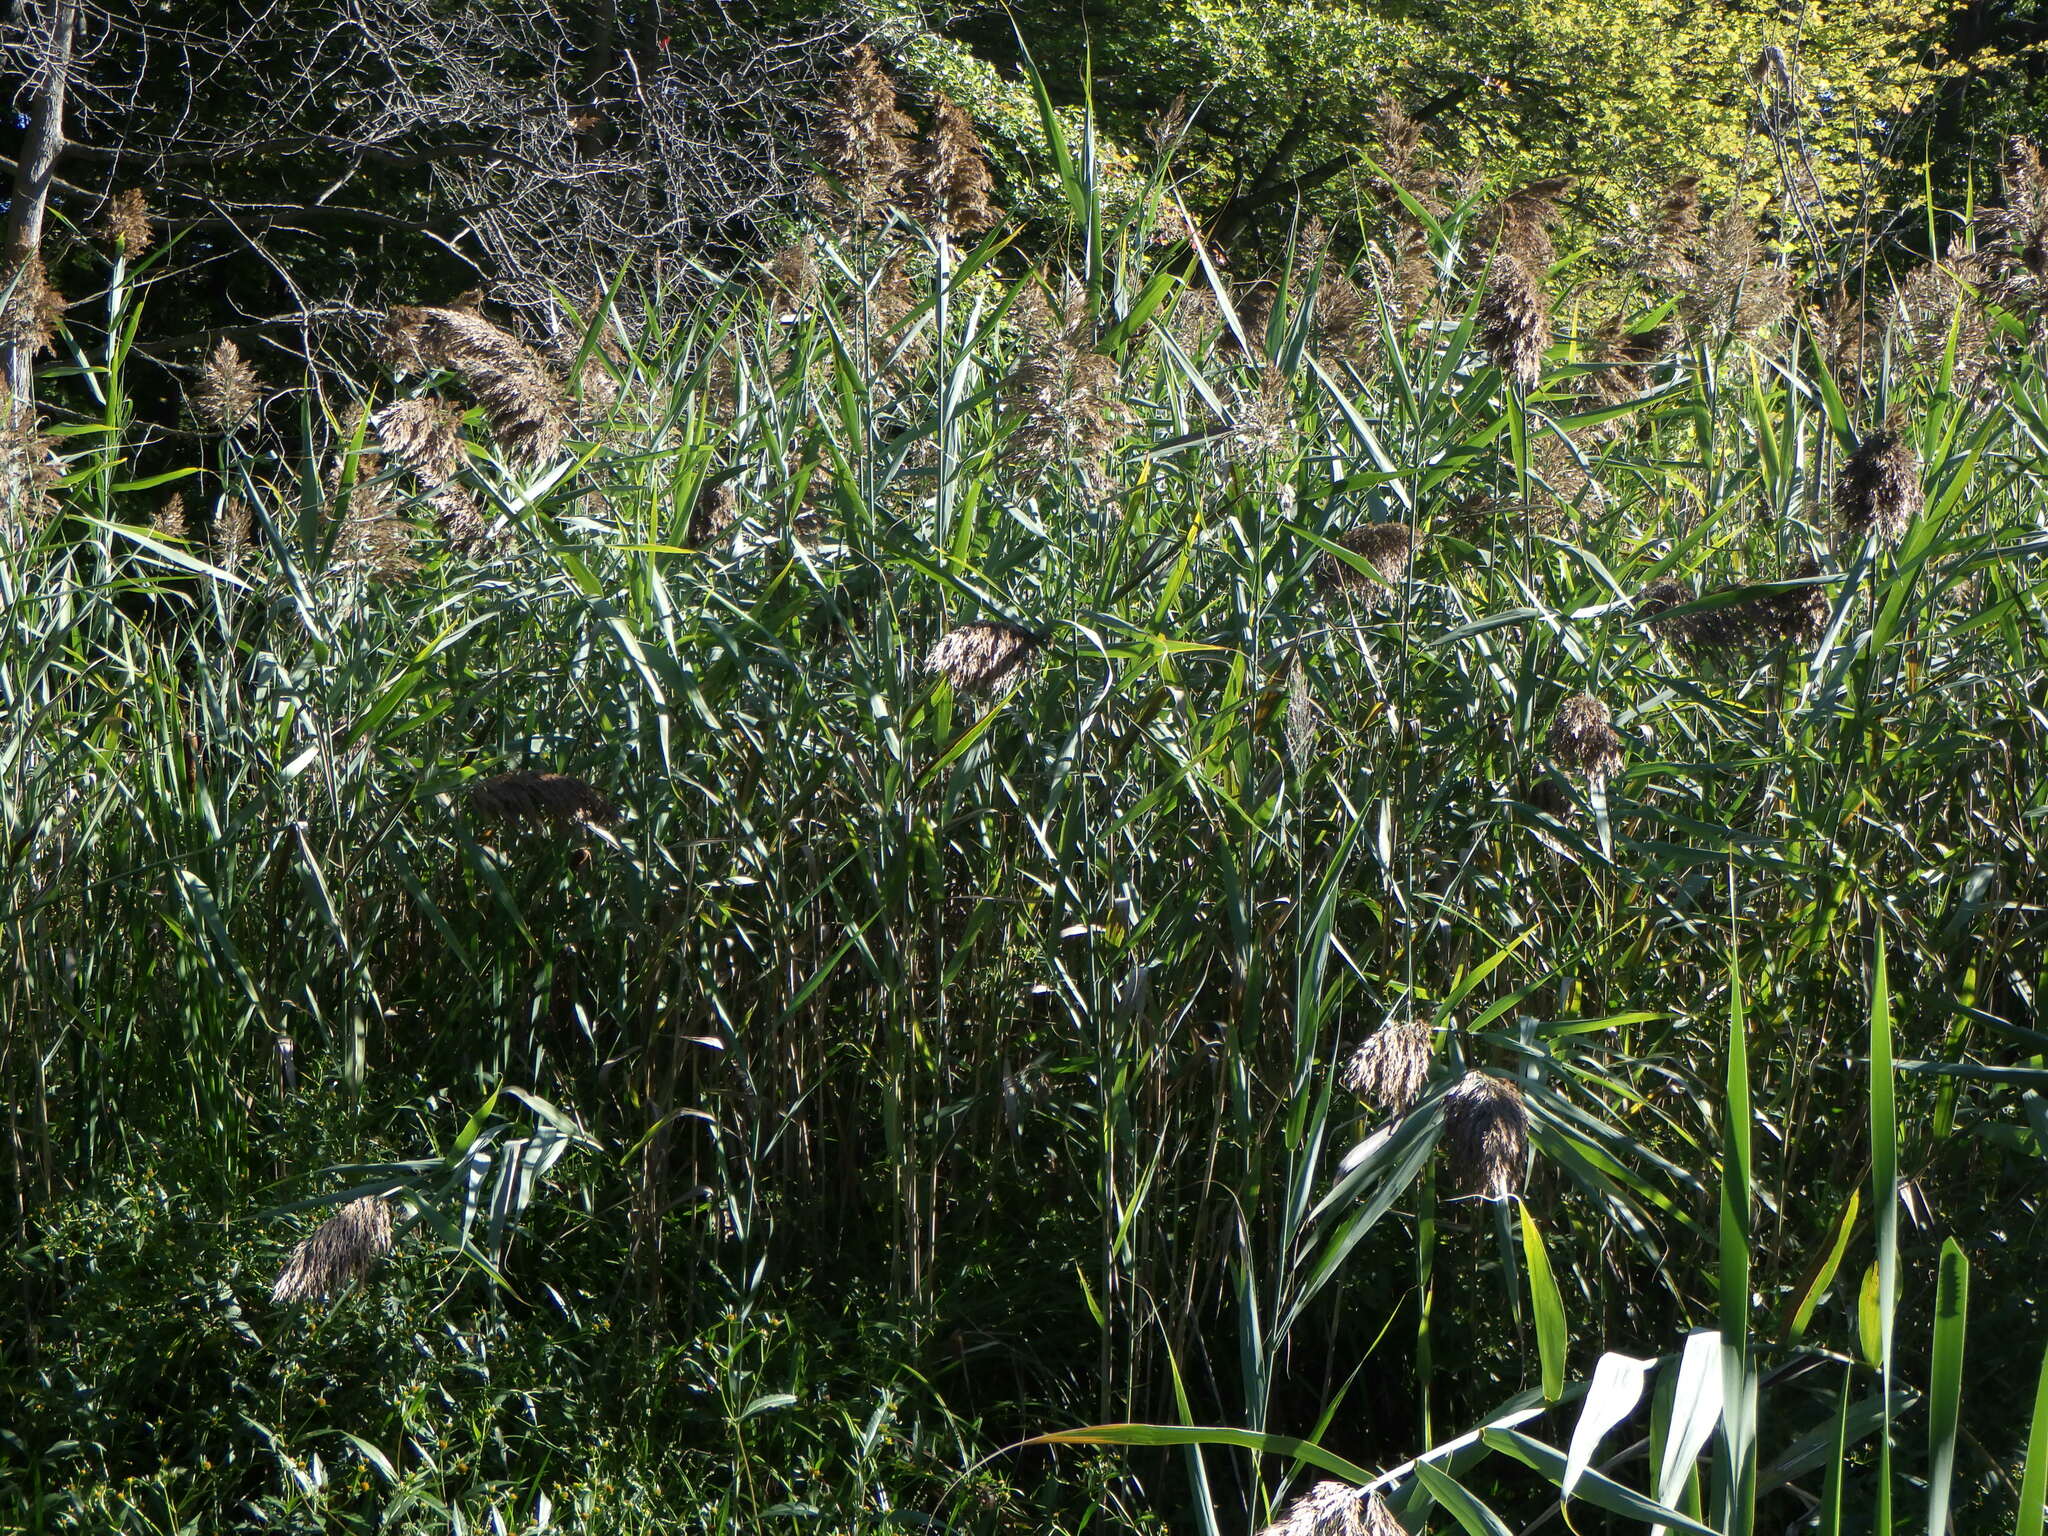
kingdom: Plantae
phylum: Tracheophyta
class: Liliopsida
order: Poales
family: Poaceae
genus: Phragmites
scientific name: Phragmites australis
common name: Common reed
